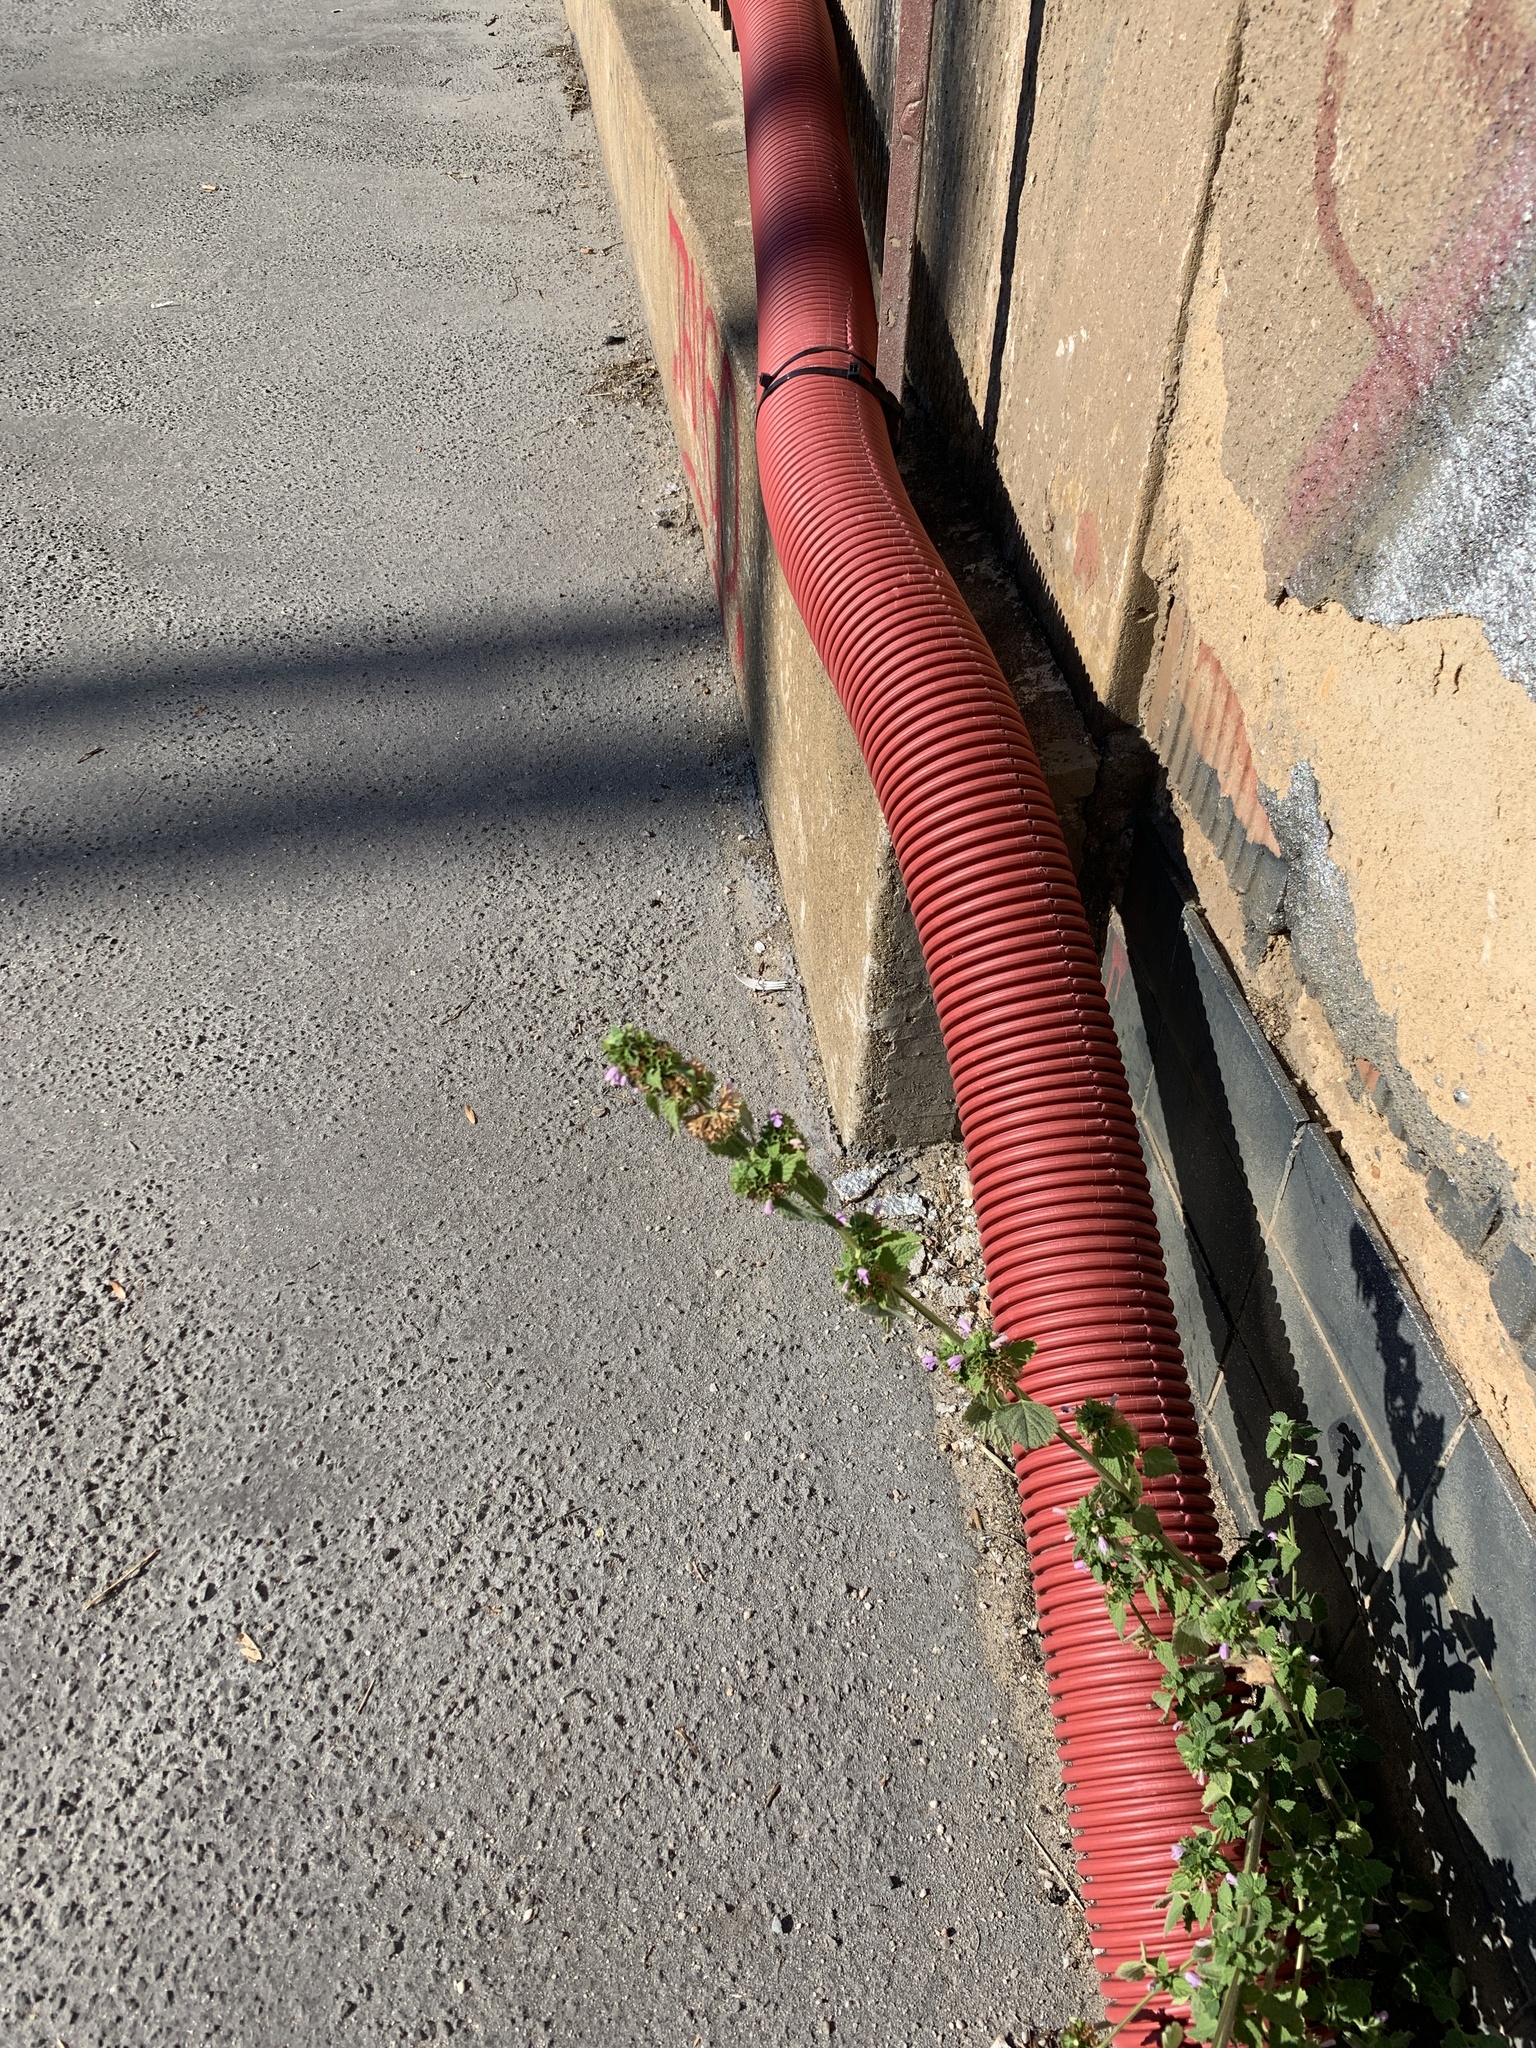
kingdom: Plantae
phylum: Tracheophyta
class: Magnoliopsida
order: Lamiales
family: Lamiaceae
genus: Ballota
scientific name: Ballota nigra
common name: Black horehound
